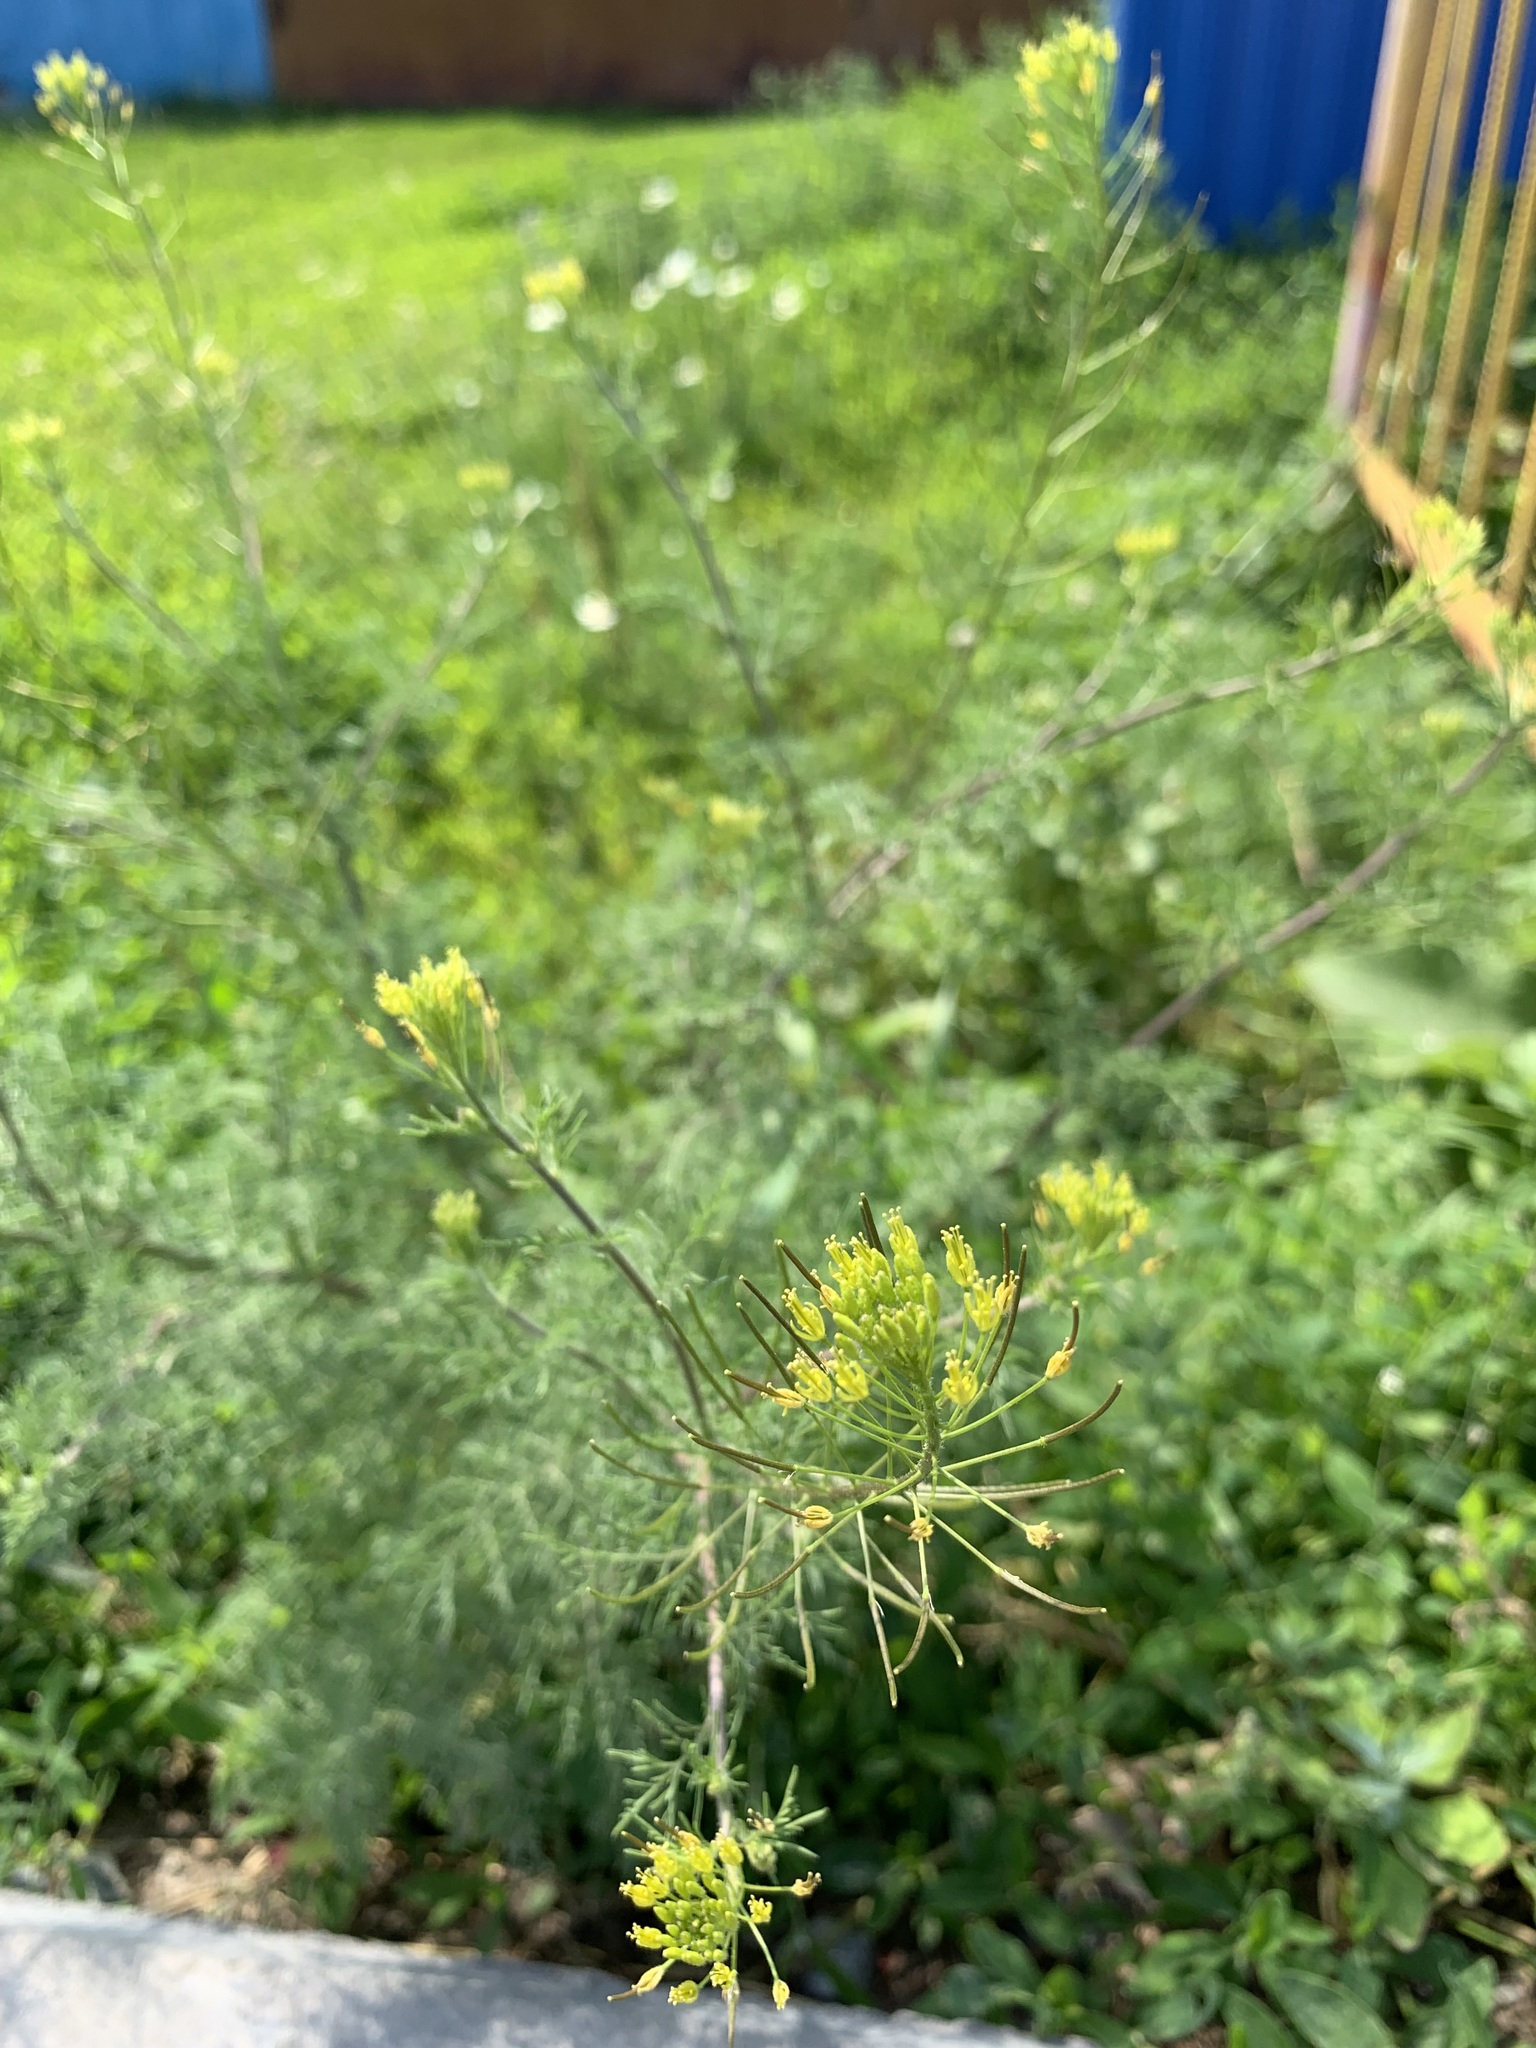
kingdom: Plantae
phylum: Tracheophyta
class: Magnoliopsida
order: Brassicales
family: Brassicaceae
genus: Descurainia
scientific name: Descurainia sophia
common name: Flixweed
